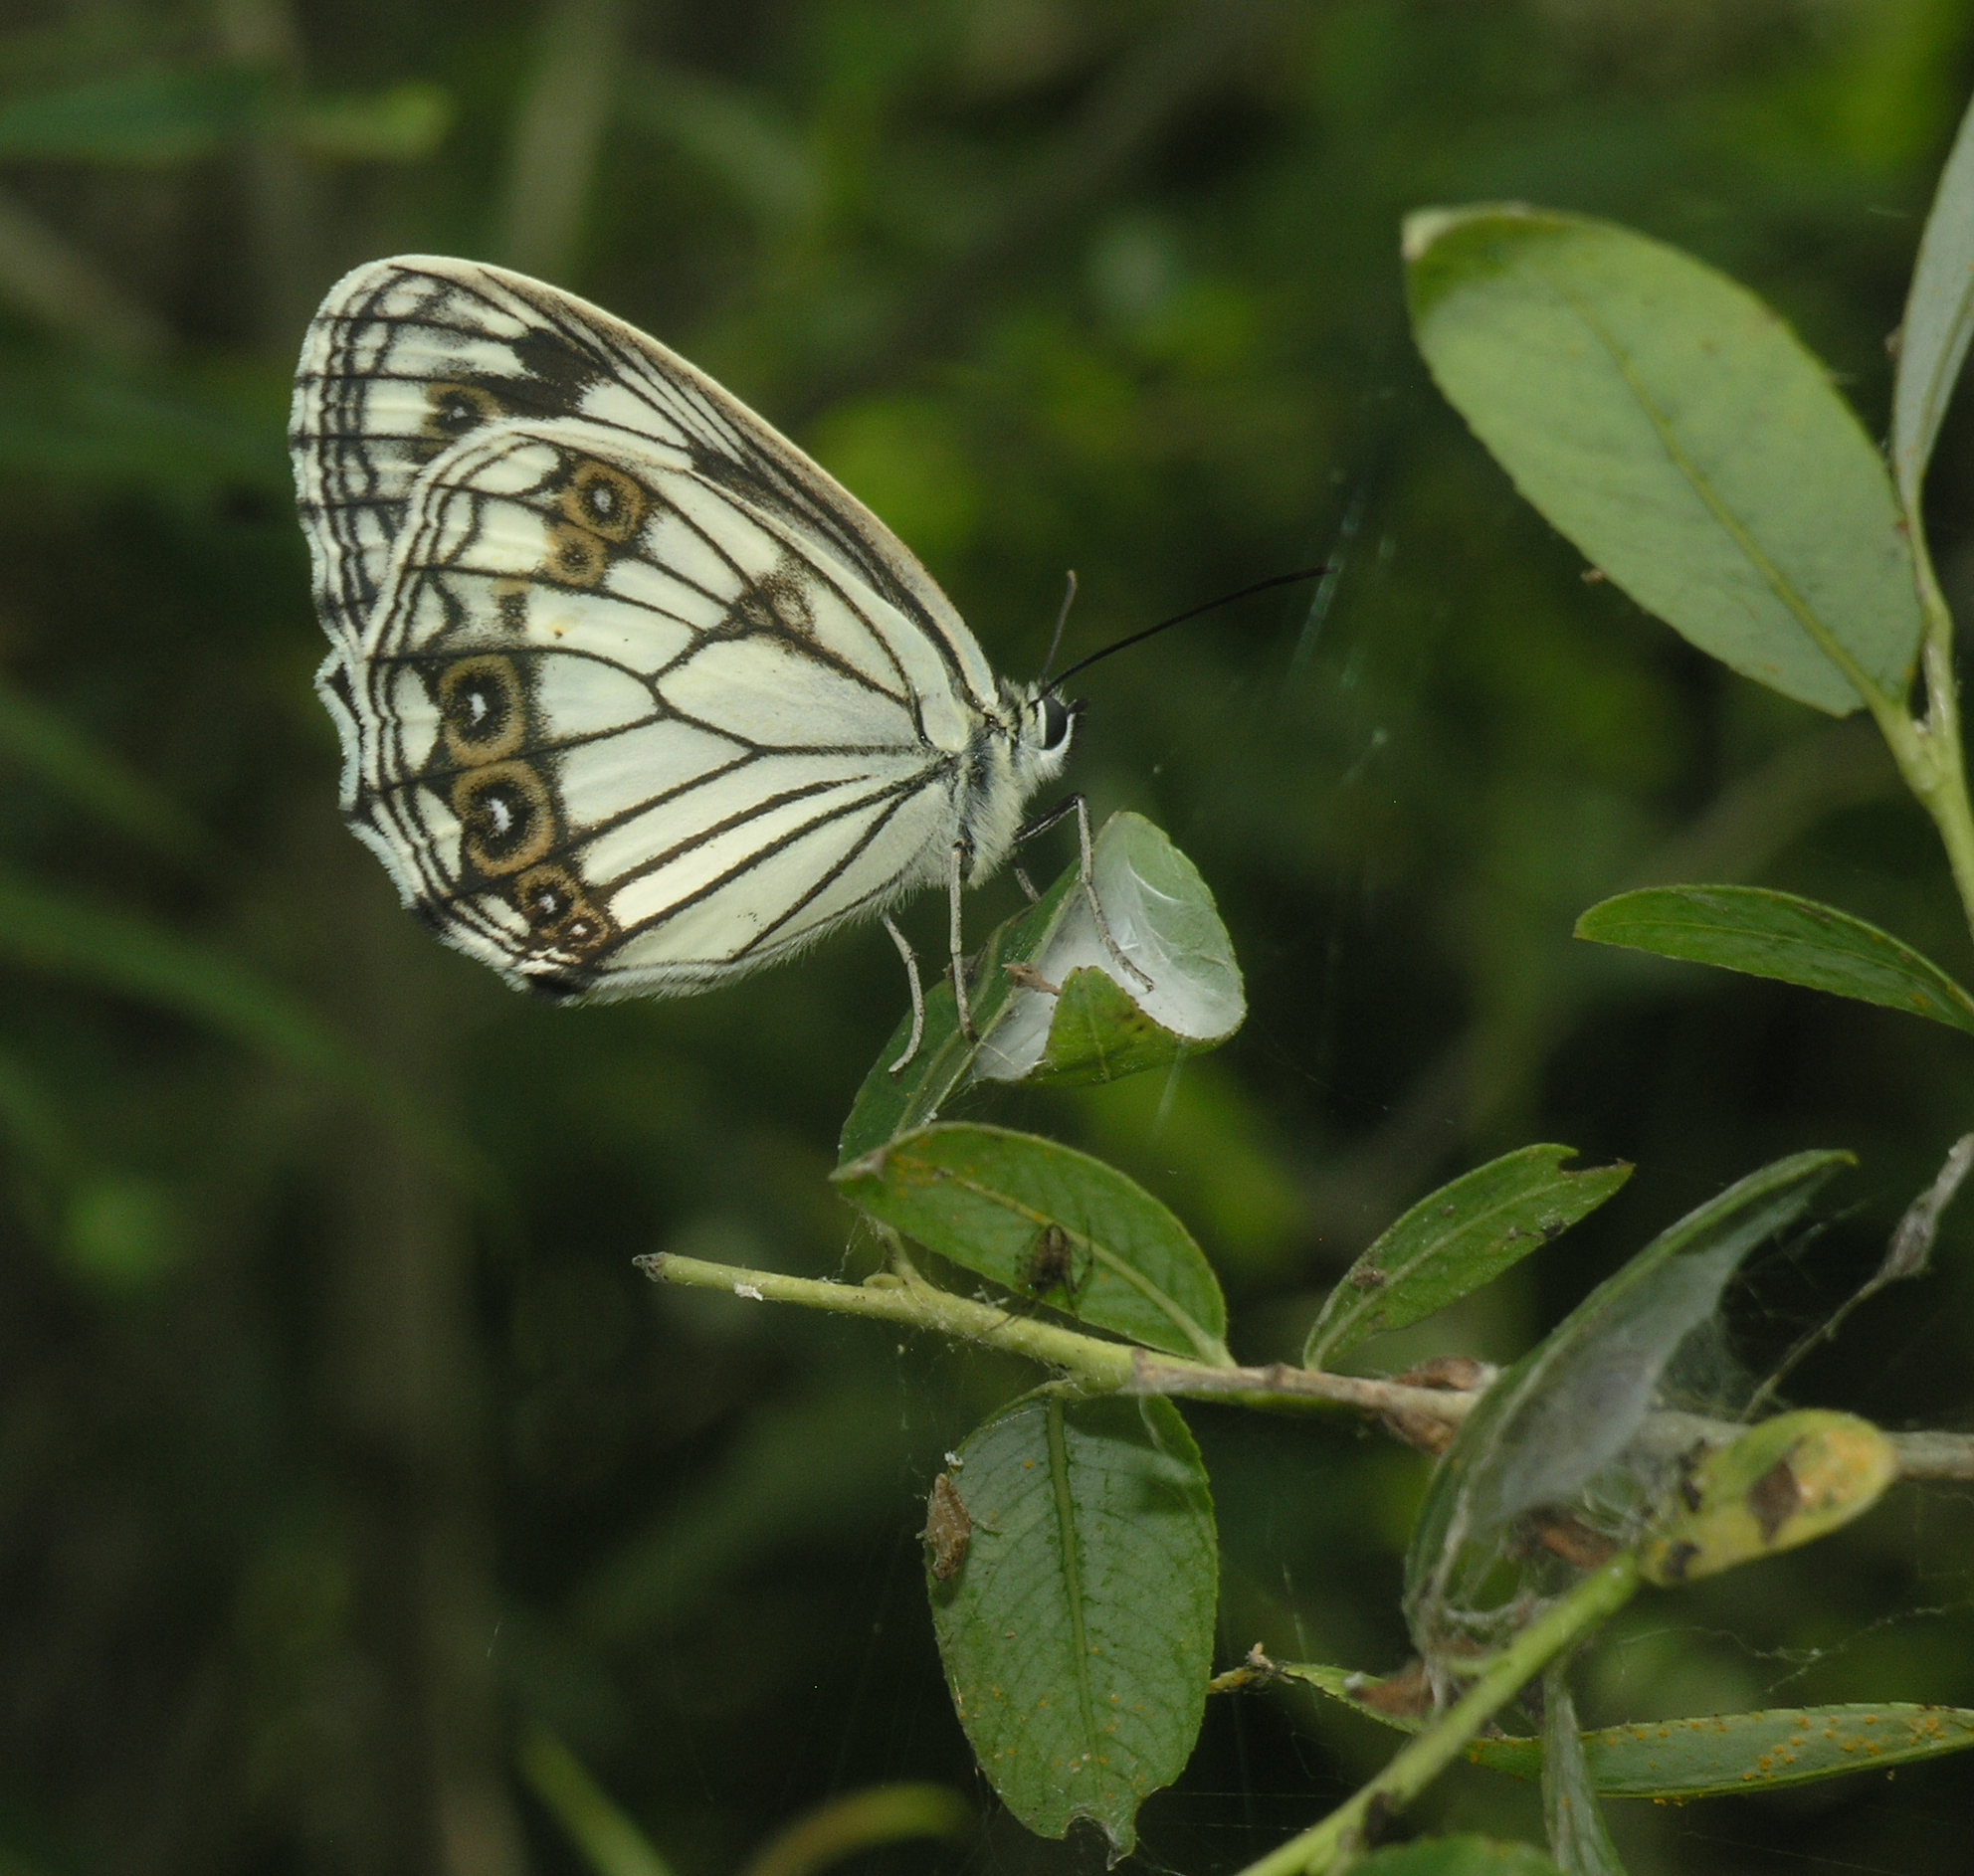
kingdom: Animalia
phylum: Arthropoda
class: Insecta
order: Lepidoptera
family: Nymphalidae
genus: Melanargia
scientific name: Melanargia halimede
